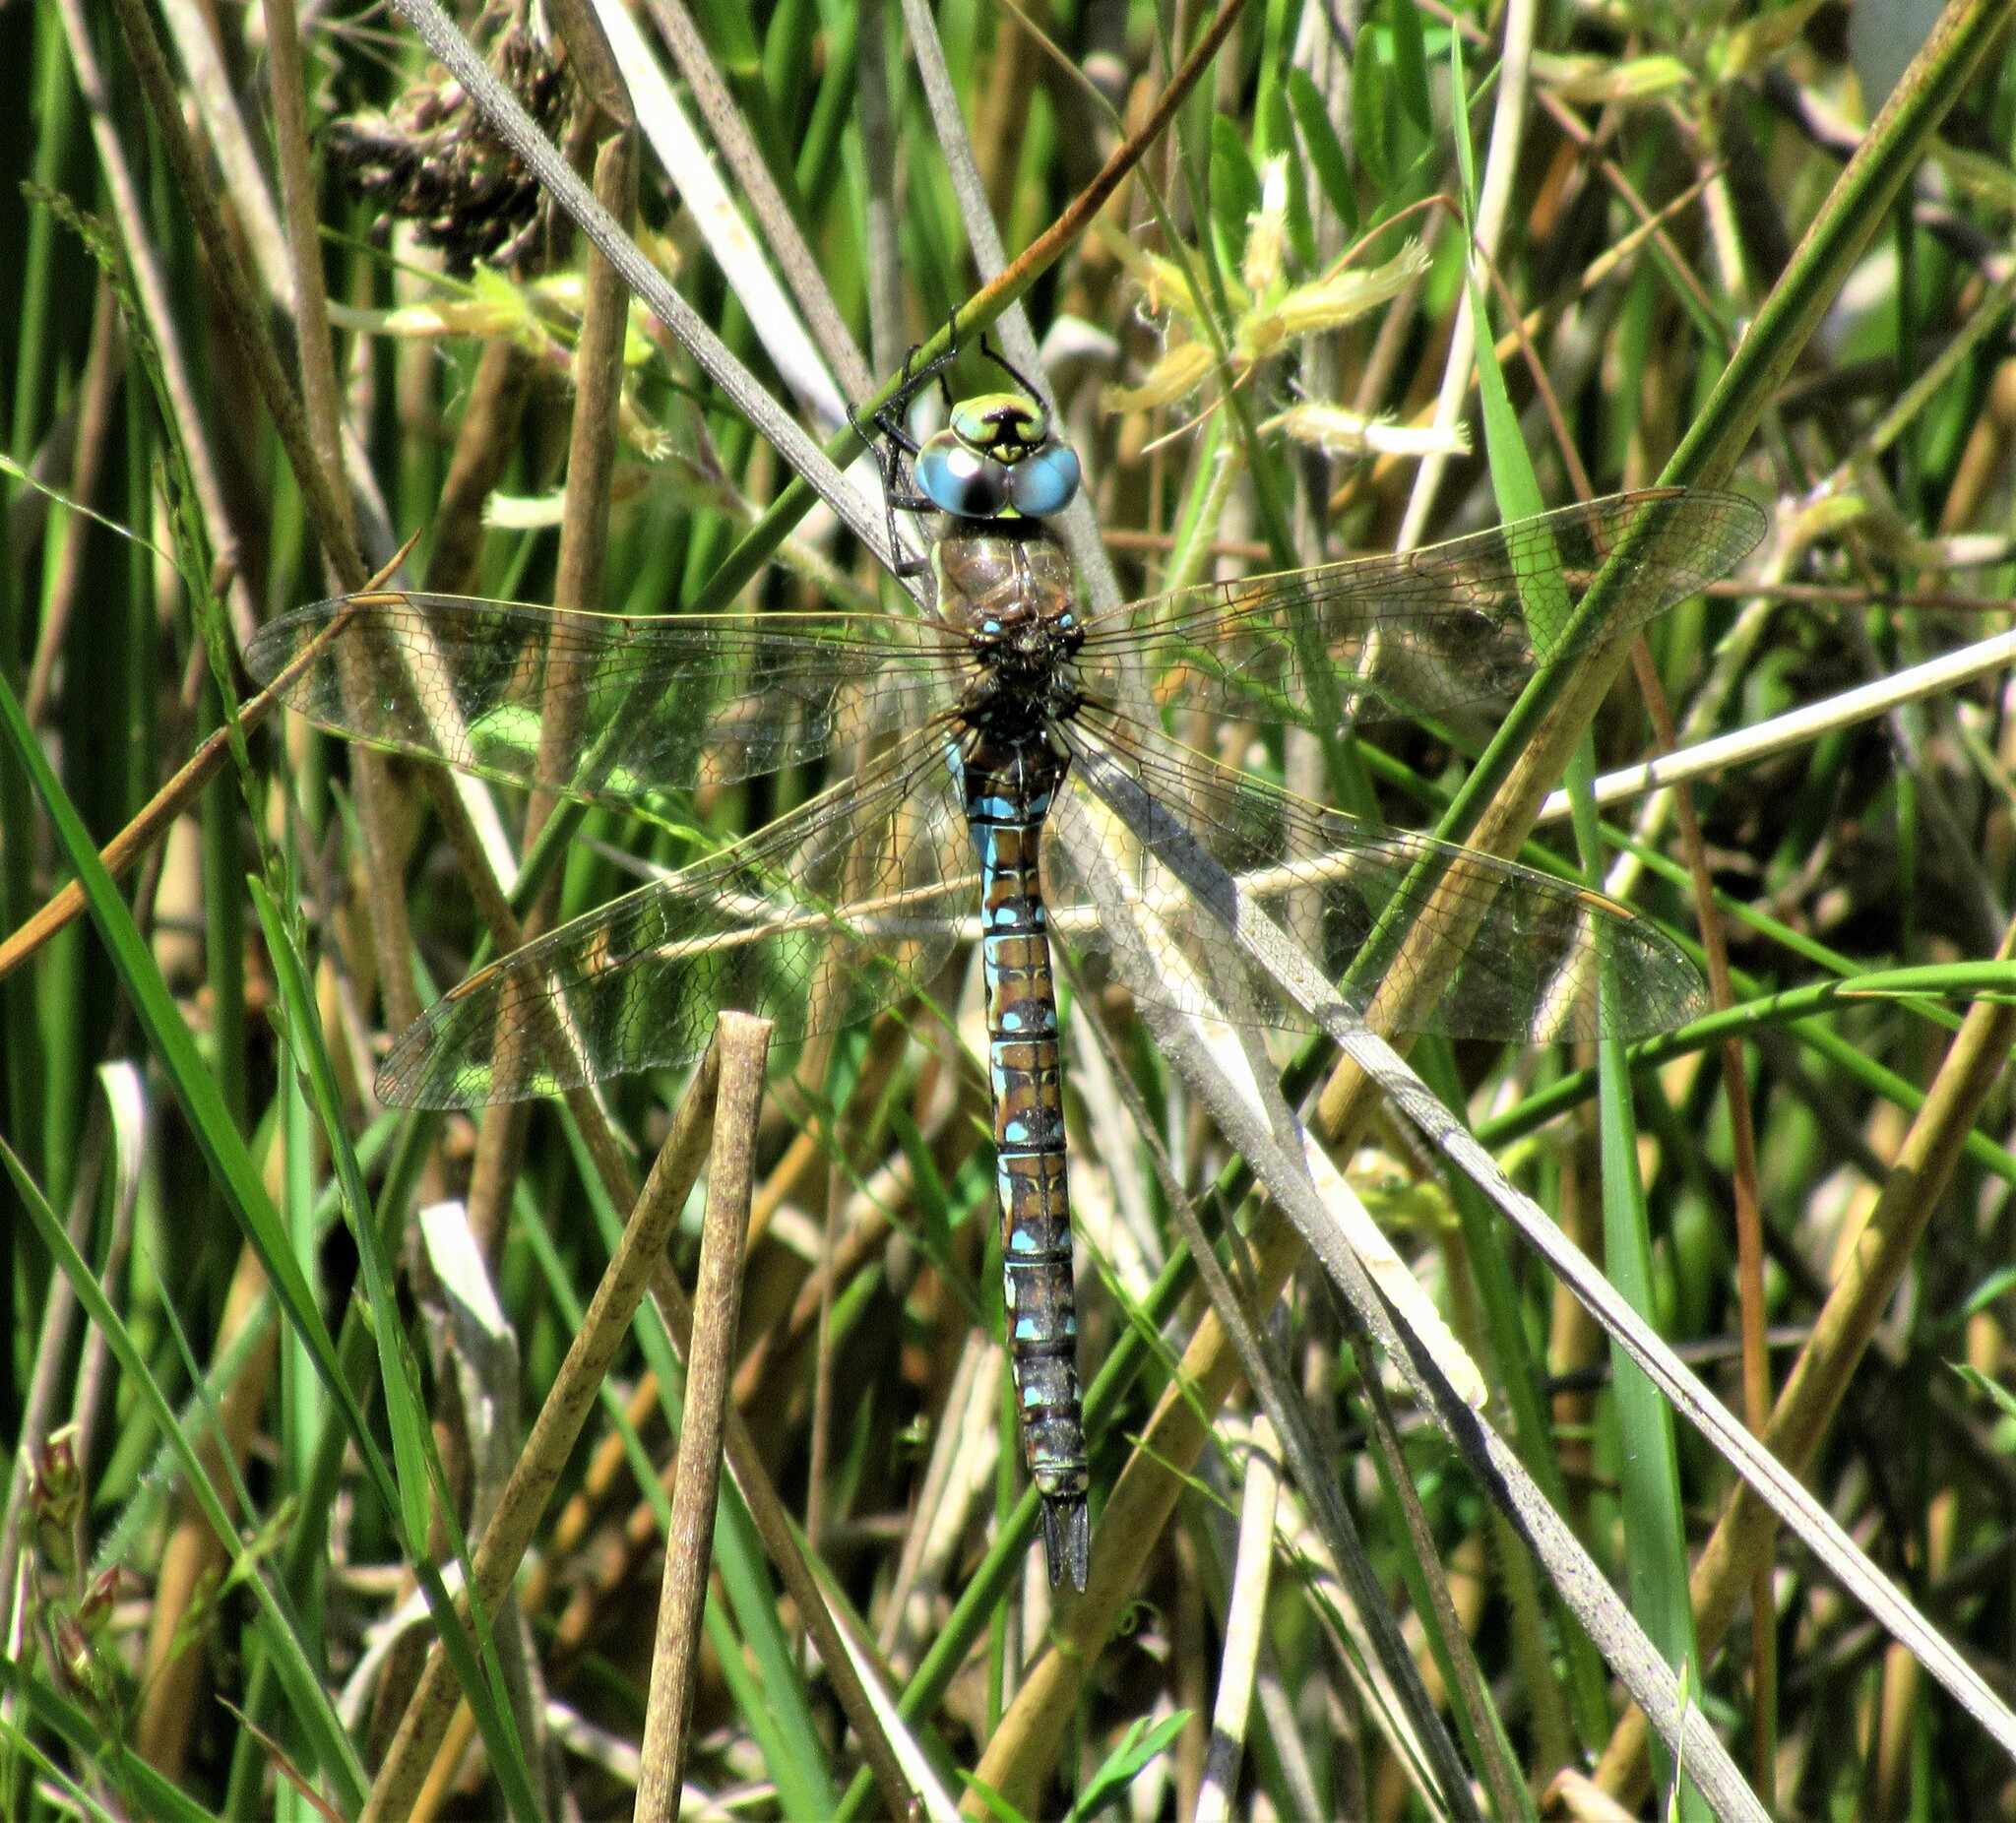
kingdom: Animalia
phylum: Arthropoda
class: Insecta
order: Odonata
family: Aeshnidae
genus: Rhionaeschna
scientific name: Rhionaeschna californica
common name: California darner
